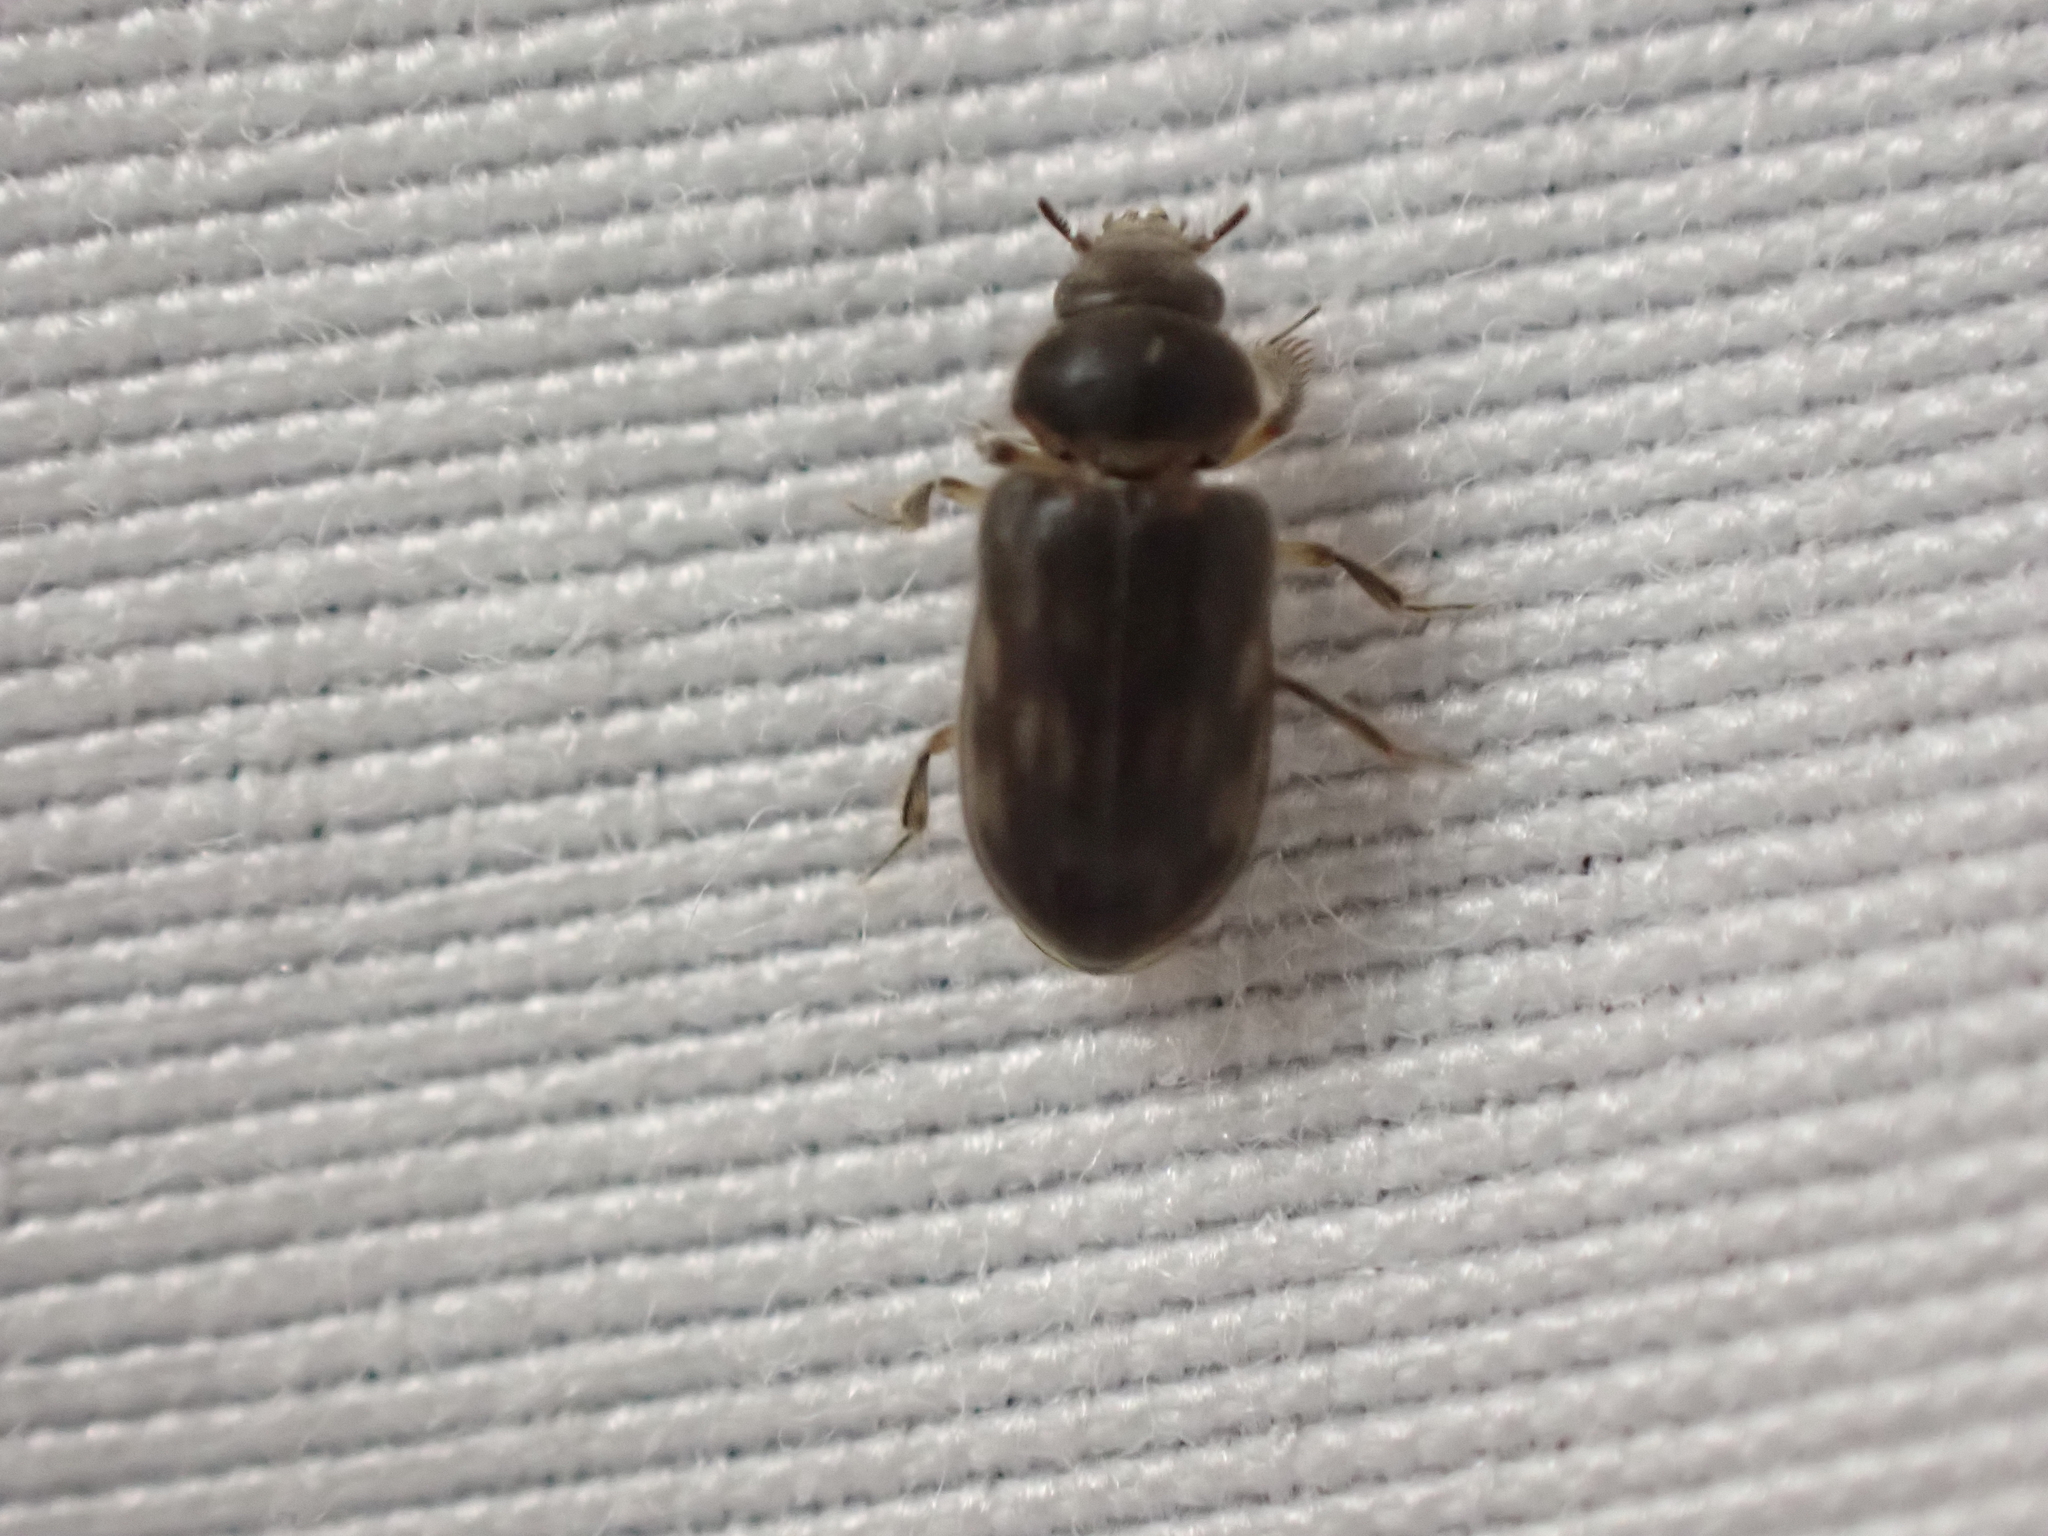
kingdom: Animalia
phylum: Arthropoda
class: Insecta
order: Coleoptera
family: Heteroceridae
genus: Heterocerus
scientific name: Heterocerus fenestratus
